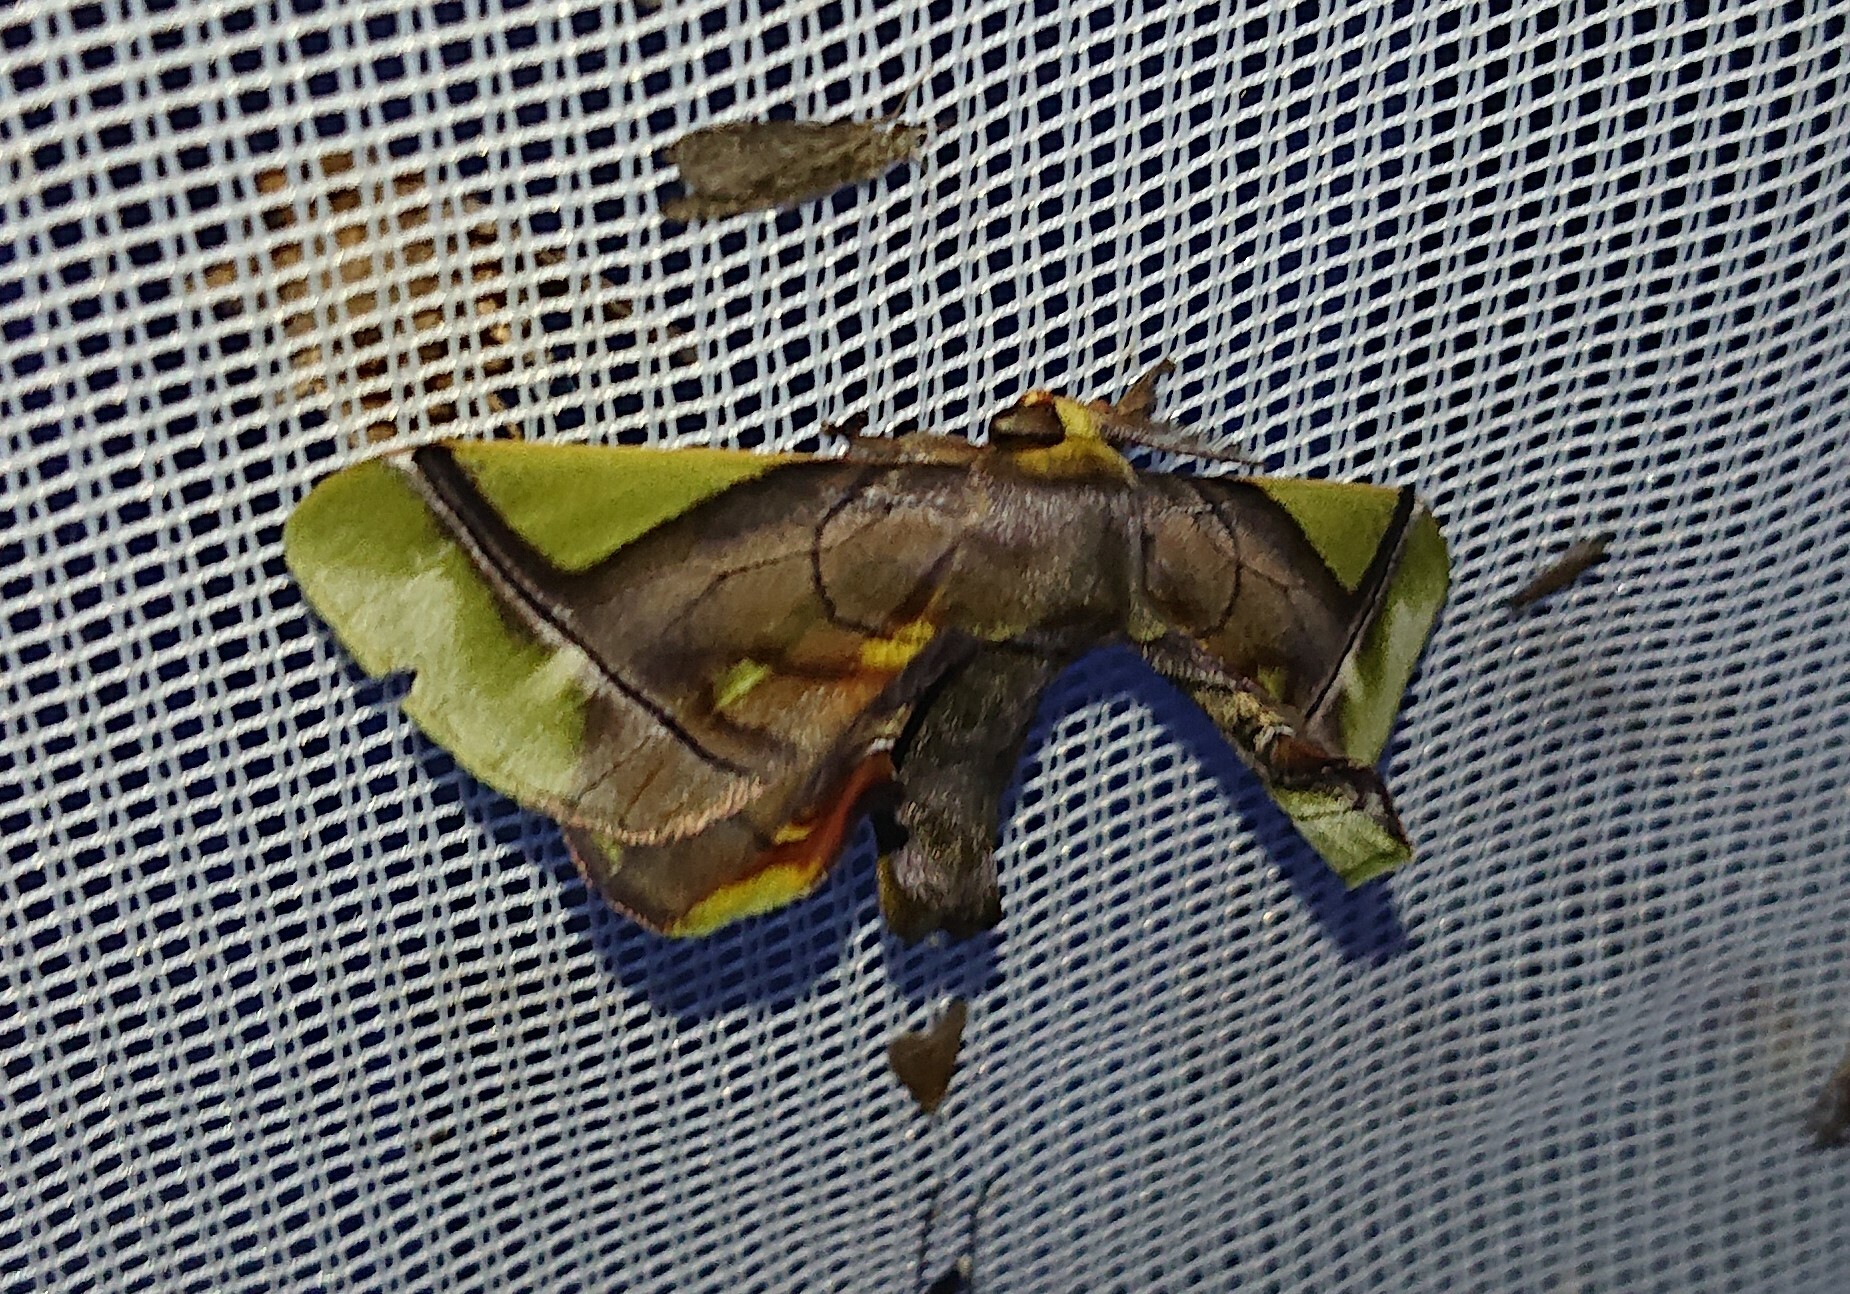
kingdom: Animalia
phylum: Arthropoda
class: Insecta
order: Lepidoptera
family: Bombycidae
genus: Epia
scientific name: Epia muscosa
